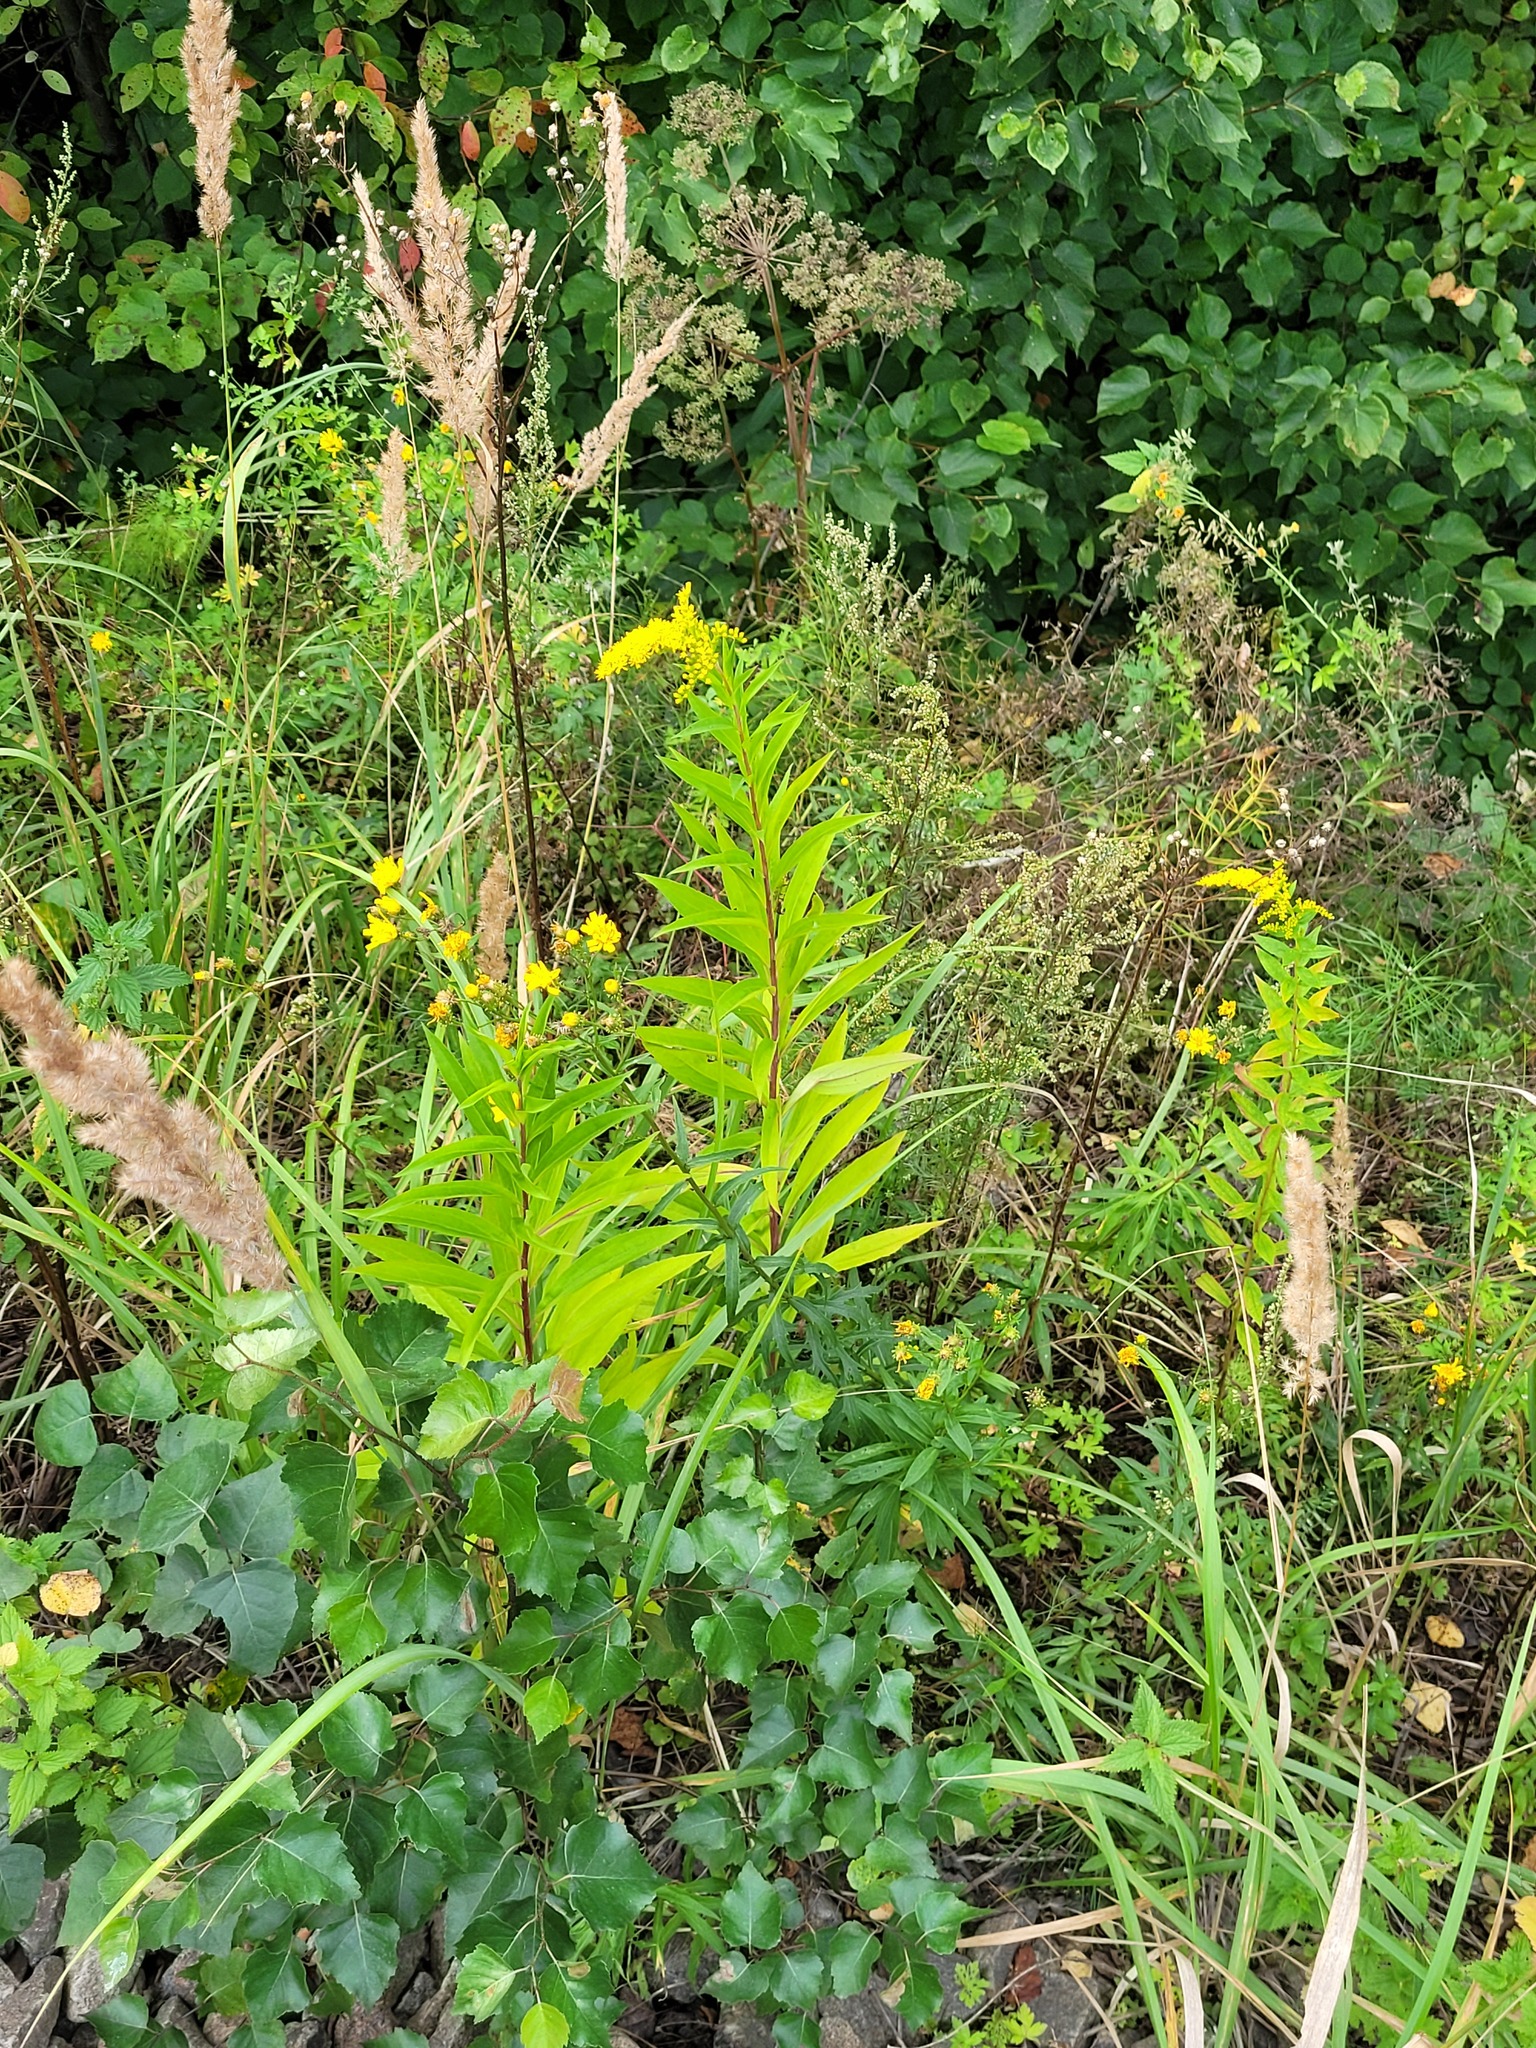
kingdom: Plantae
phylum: Tracheophyta
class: Magnoliopsida
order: Asterales
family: Asteraceae
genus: Solidago
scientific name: Solidago gigantea
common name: Giant goldenrod
